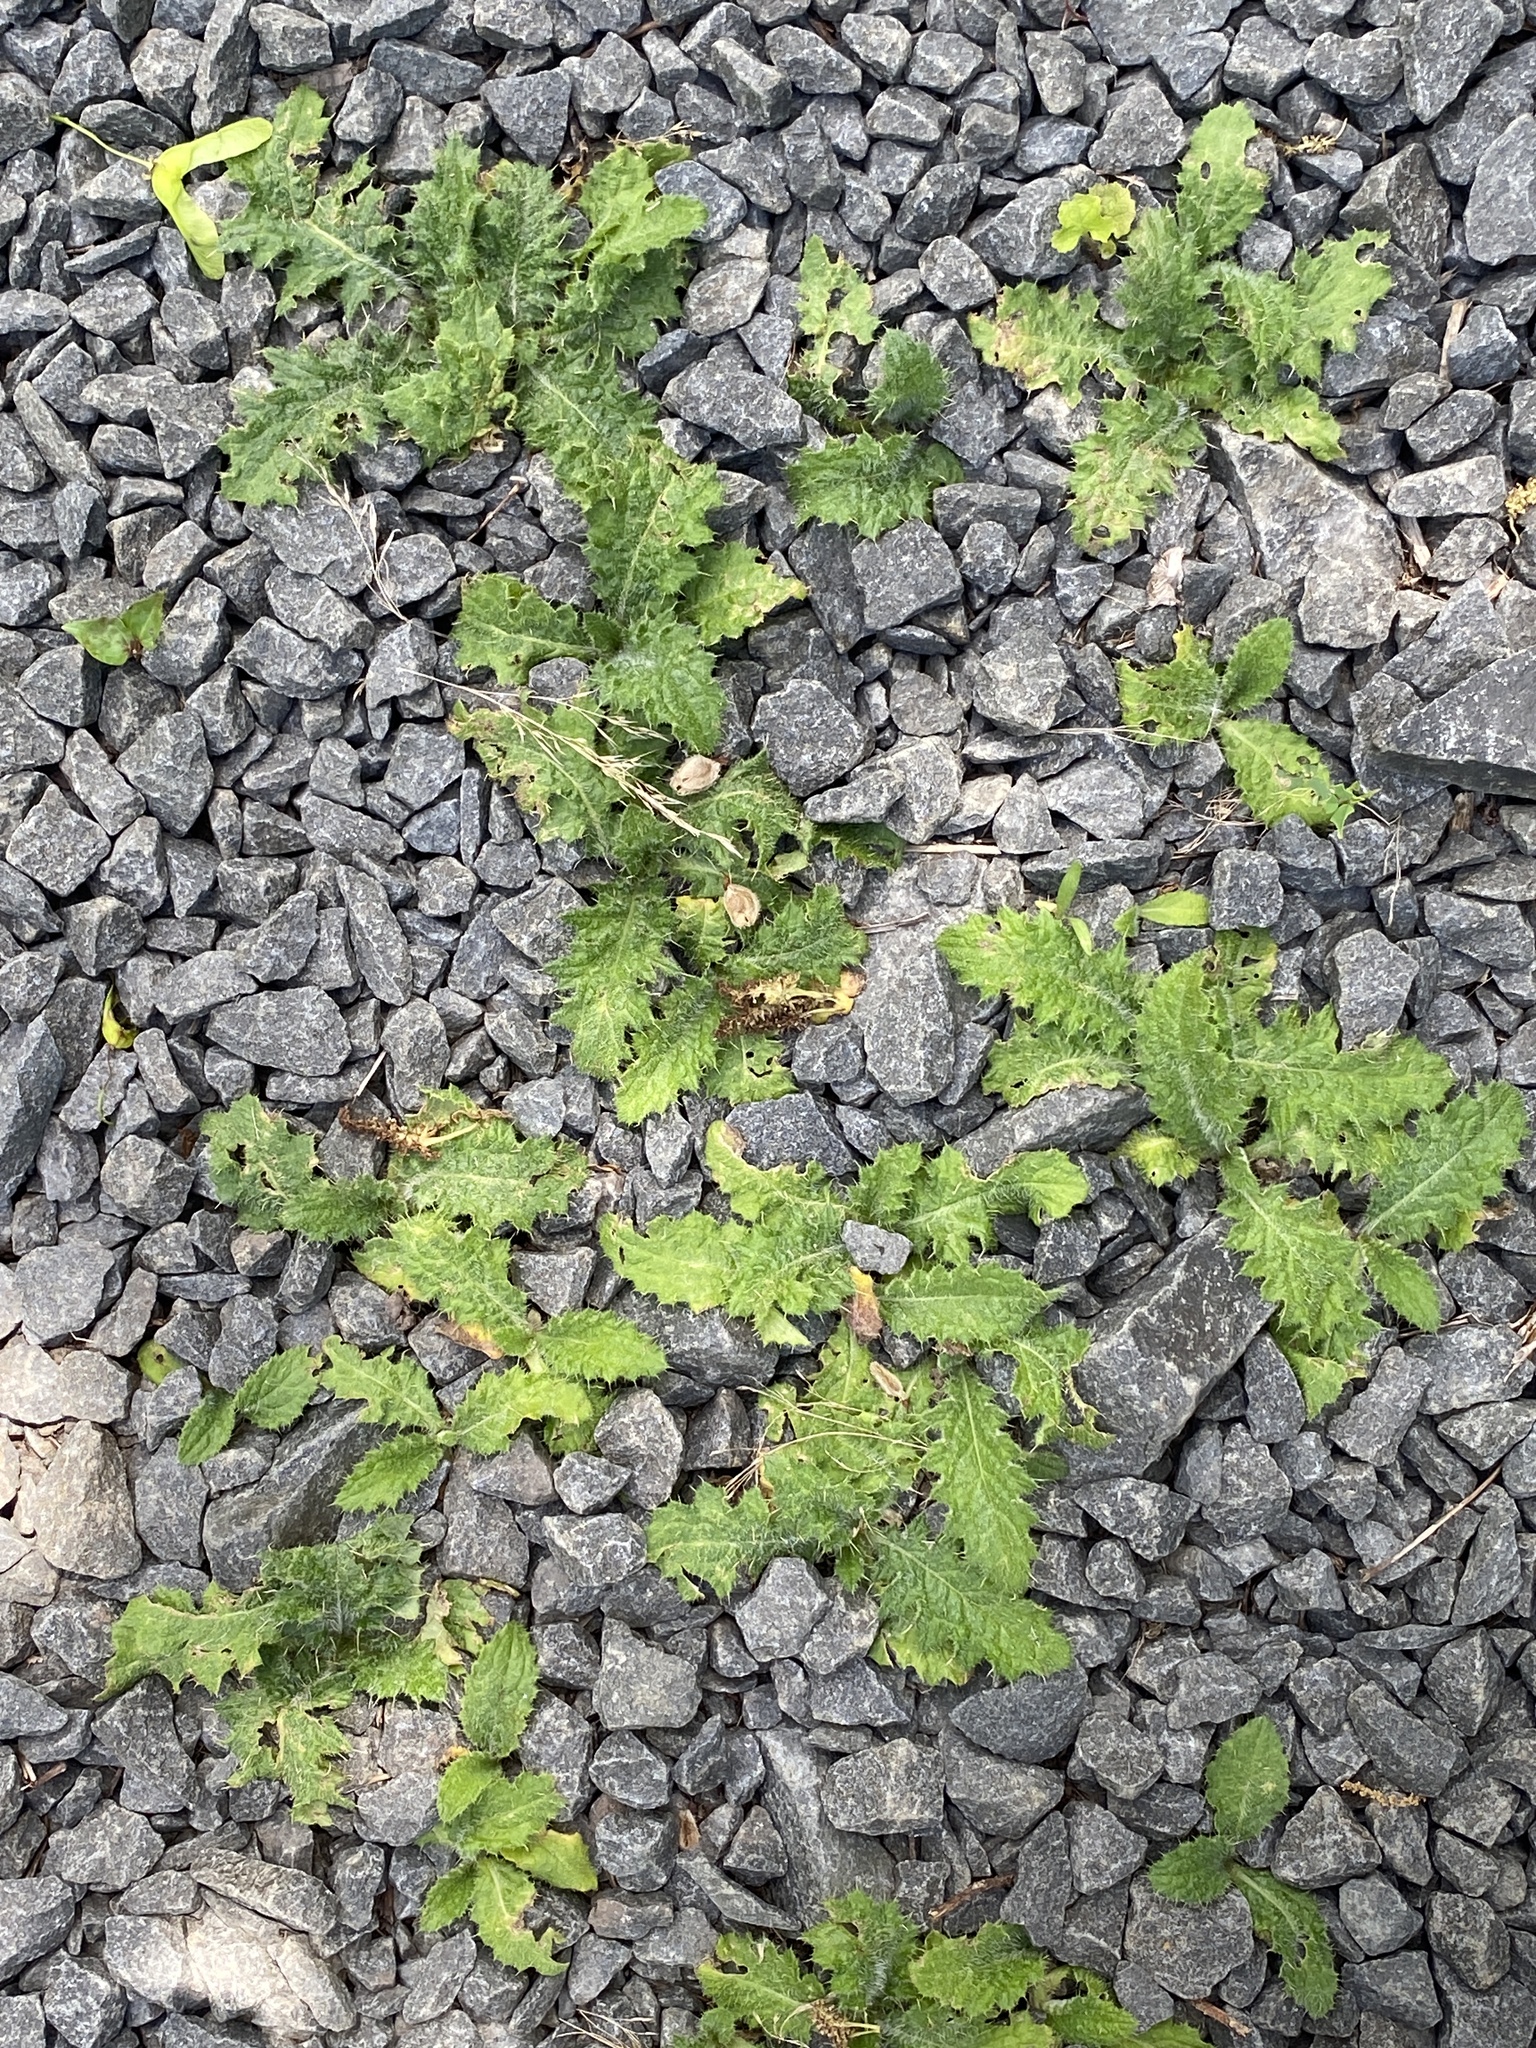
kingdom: Plantae
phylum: Tracheophyta
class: Magnoliopsida
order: Asterales
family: Asteraceae
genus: Cirsium
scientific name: Cirsium vulgare
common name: Bull thistle
